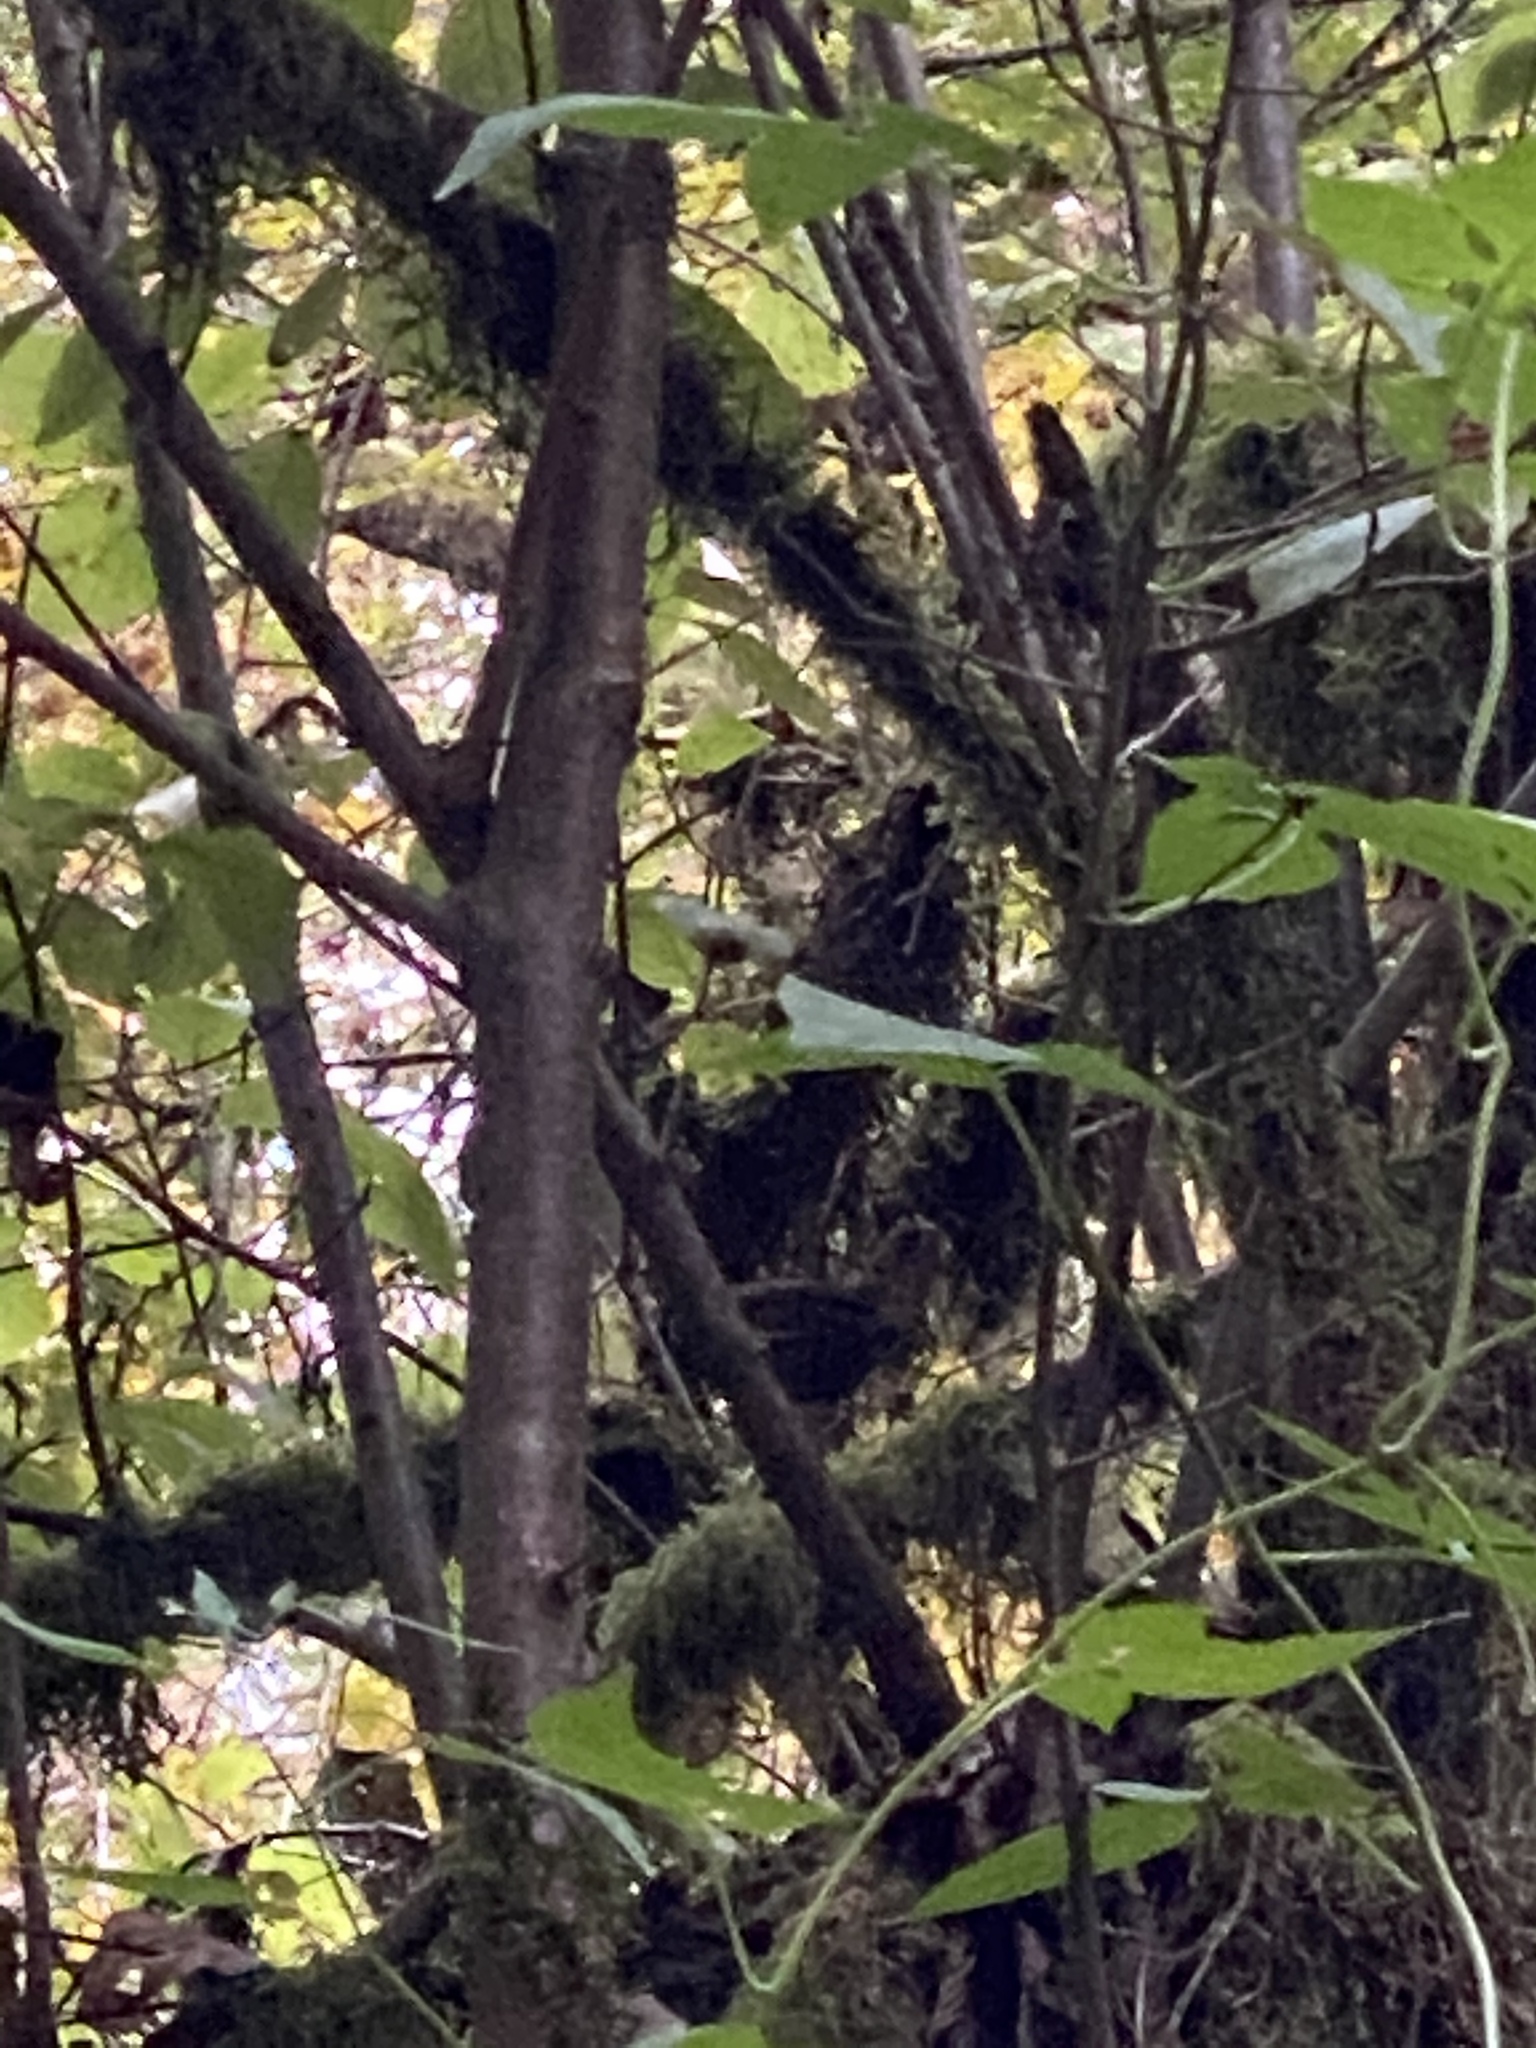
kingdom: Animalia
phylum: Chordata
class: Aves
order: Passeriformes
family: Troglodytidae
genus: Troglodytes
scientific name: Troglodytes pacificus
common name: Pacific wren
